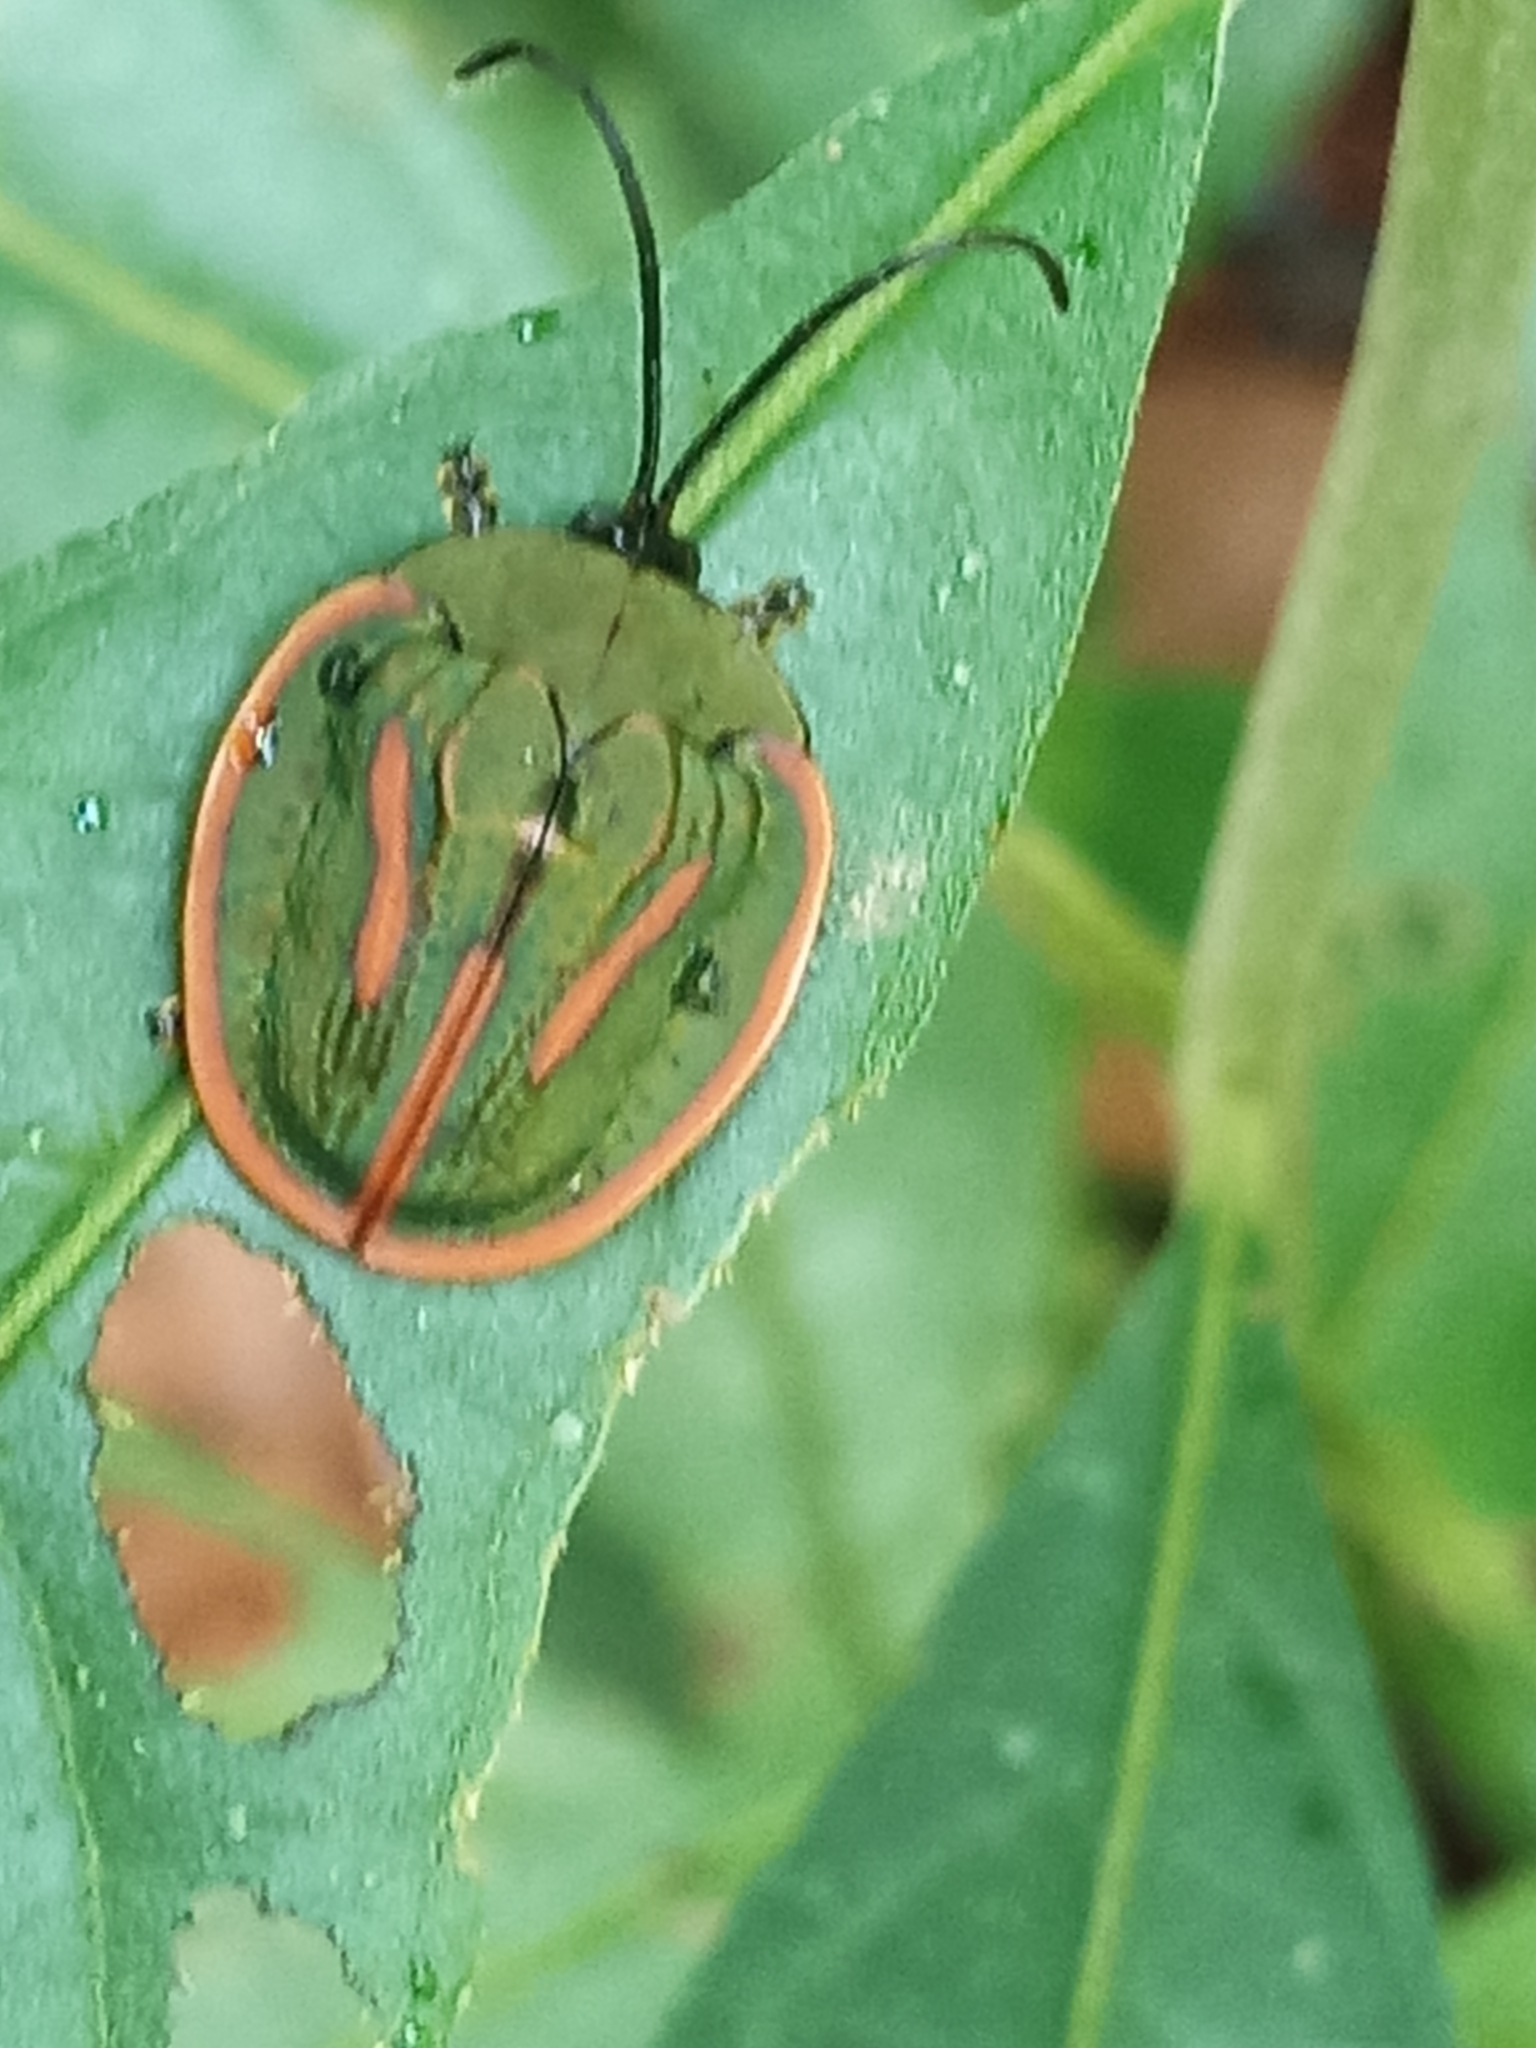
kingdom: Animalia
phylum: Arthropoda
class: Insecta
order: Coleoptera
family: Chrysomelidae
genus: Cyclosoma
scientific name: Cyclosoma palliata
